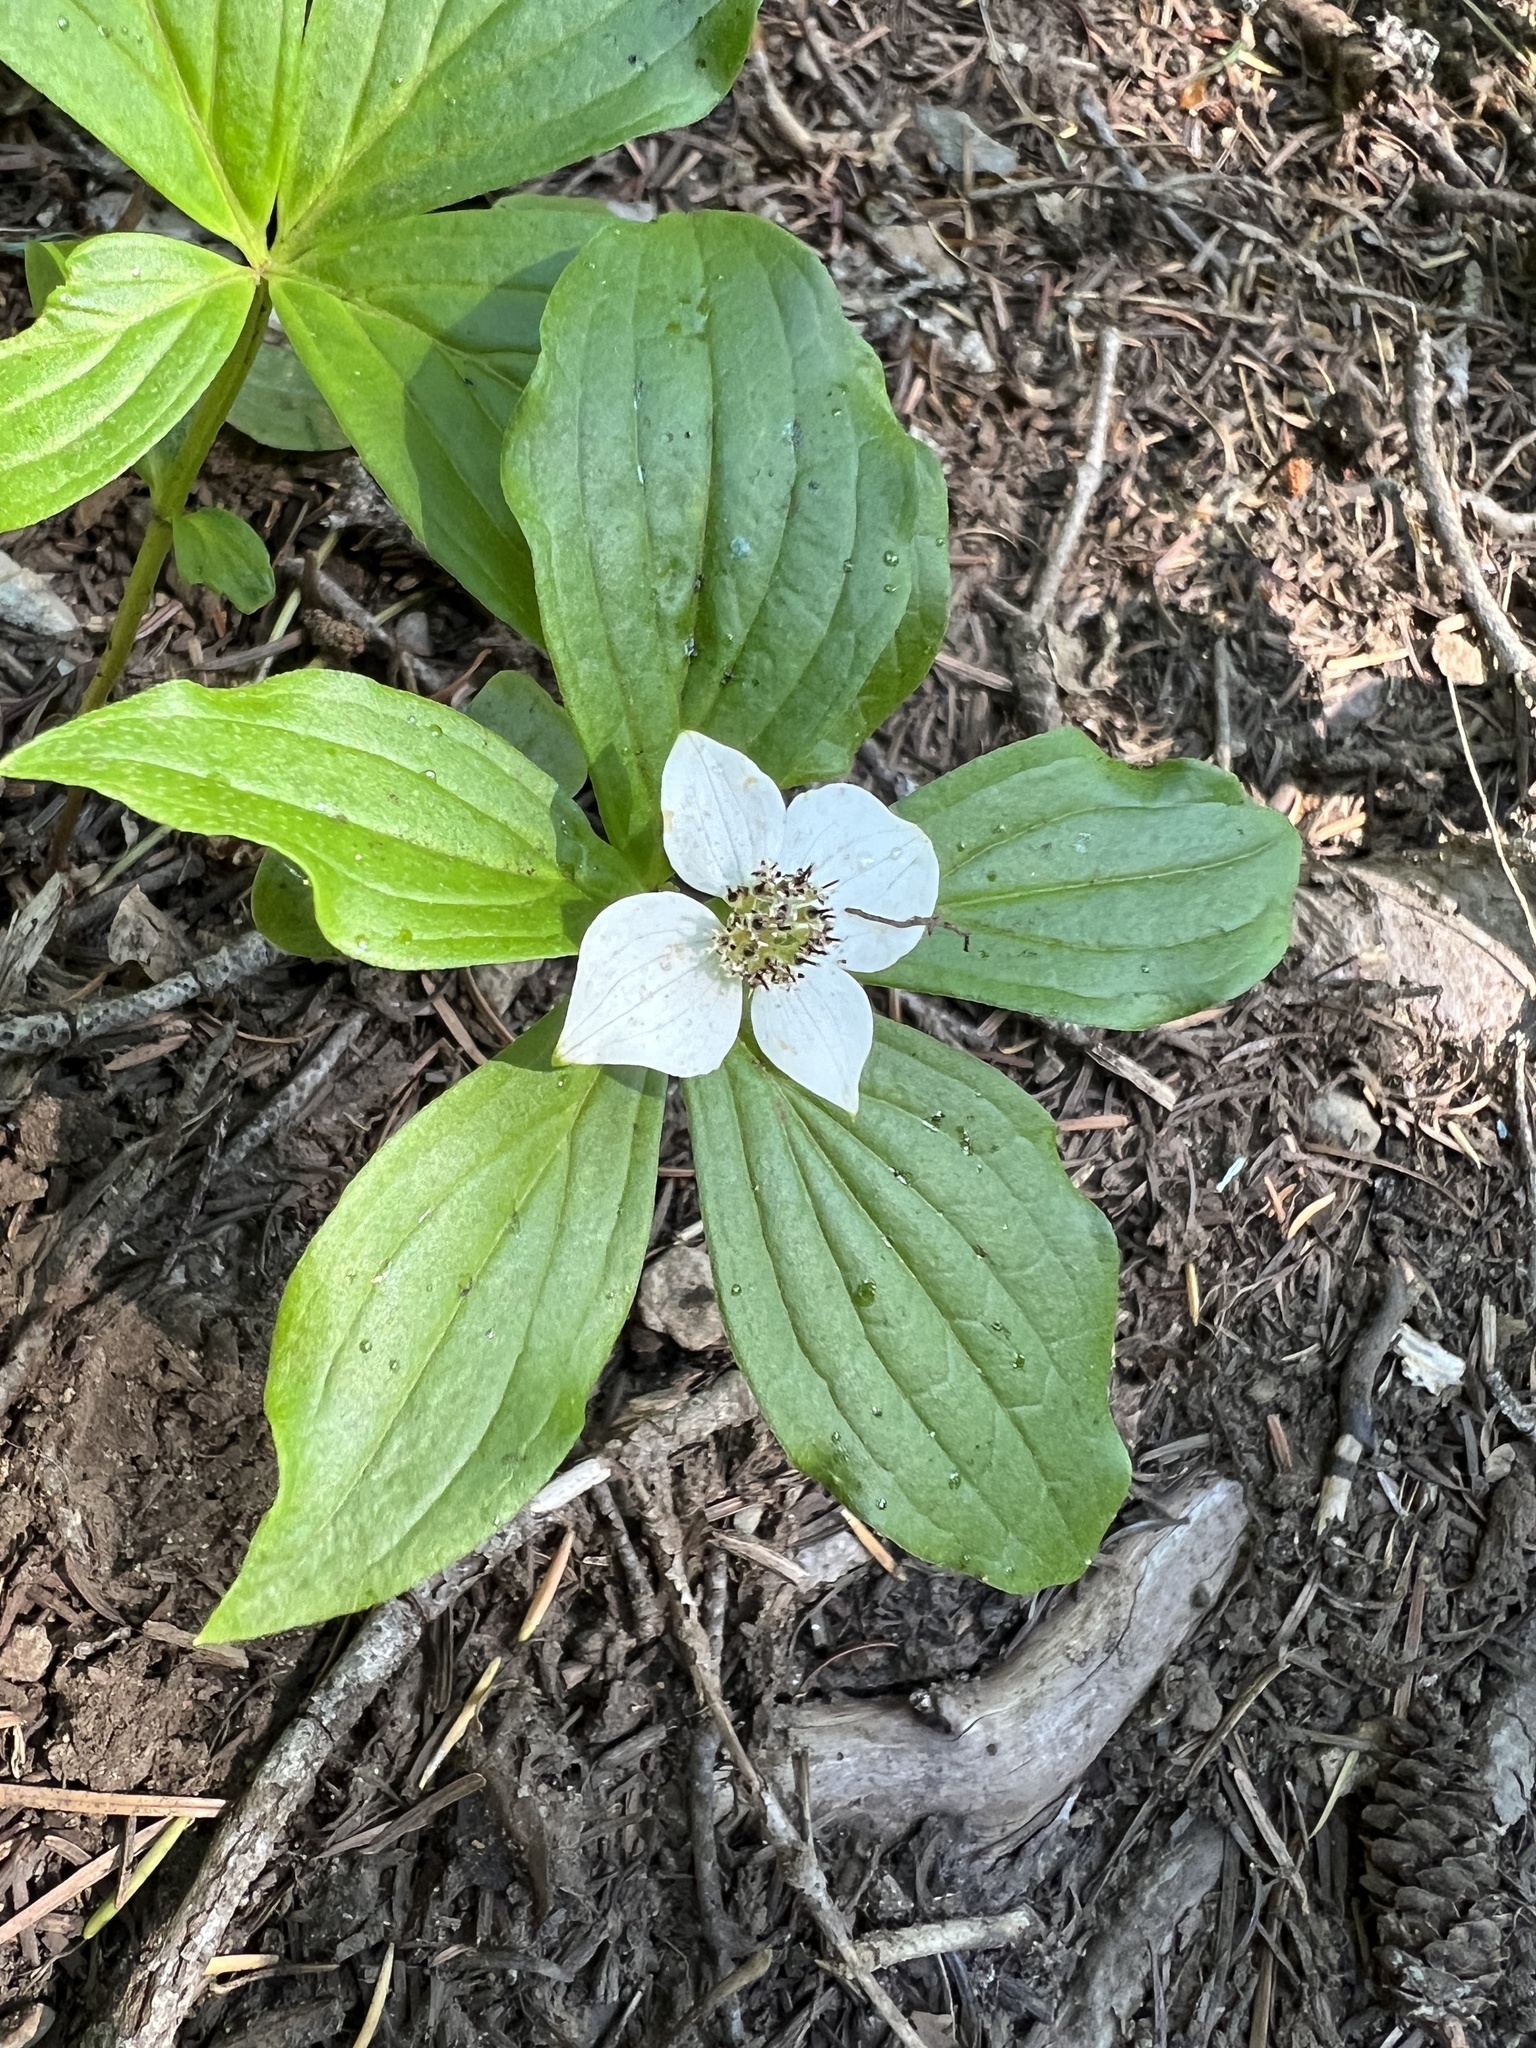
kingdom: Plantae
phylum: Tracheophyta
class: Magnoliopsida
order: Cornales
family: Cornaceae
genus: Cornus
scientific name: Cornus unalaschkensis
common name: Alaska bunchberry
